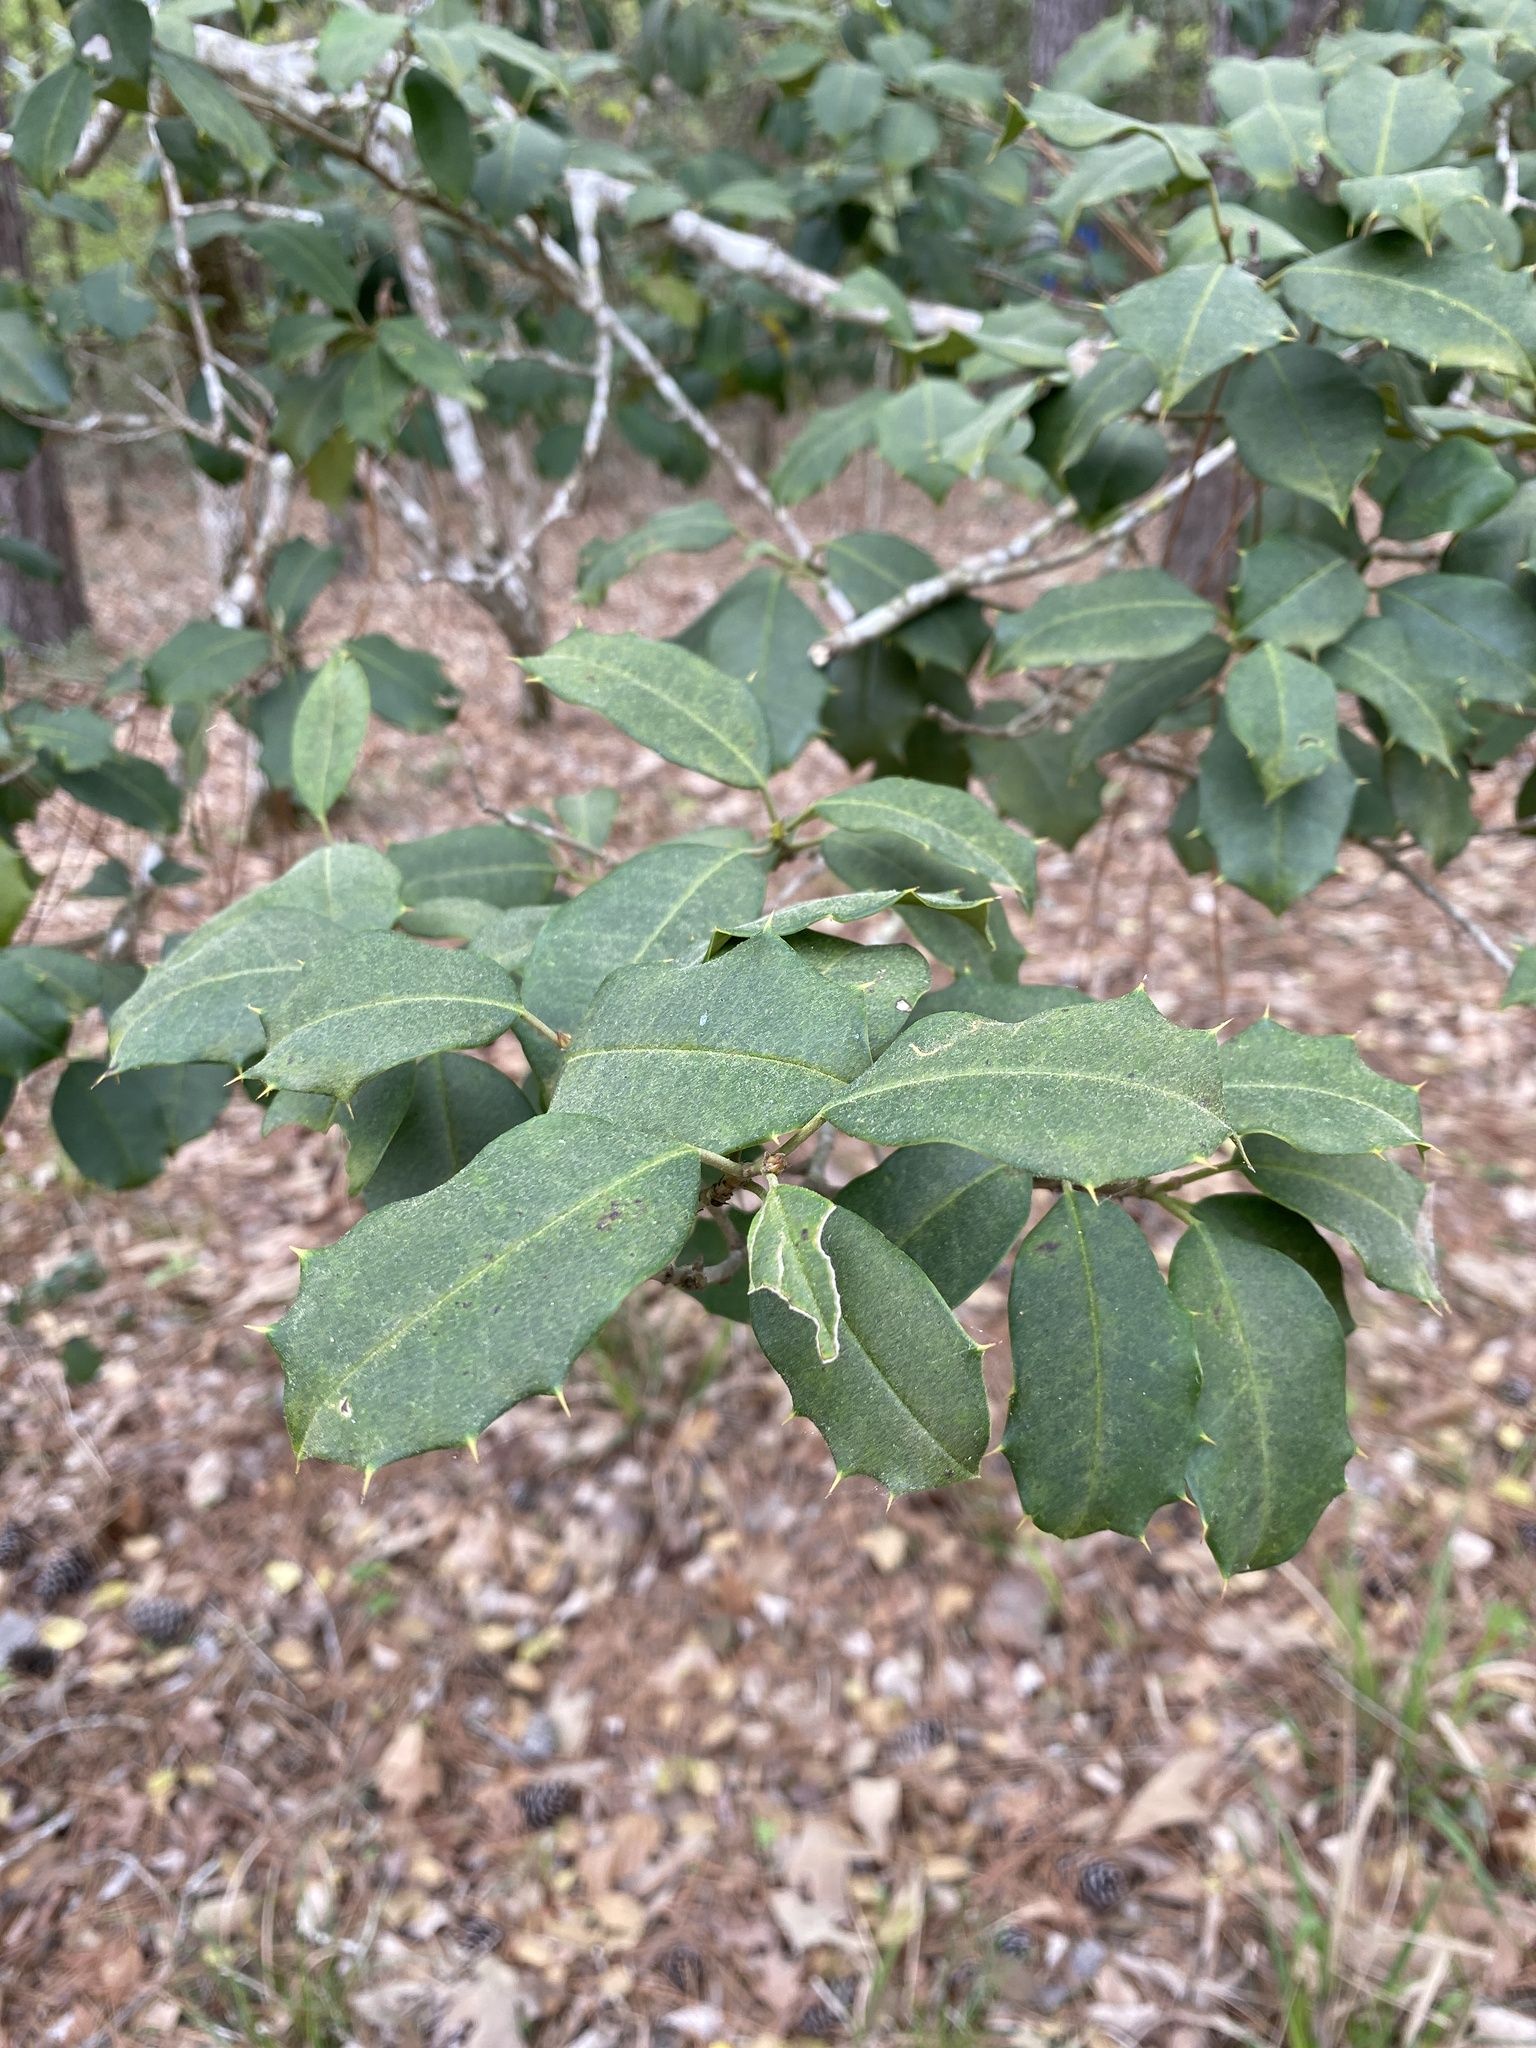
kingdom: Plantae
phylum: Tracheophyta
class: Magnoliopsida
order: Aquifoliales
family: Aquifoliaceae
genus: Ilex
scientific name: Ilex opaca
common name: American holly
